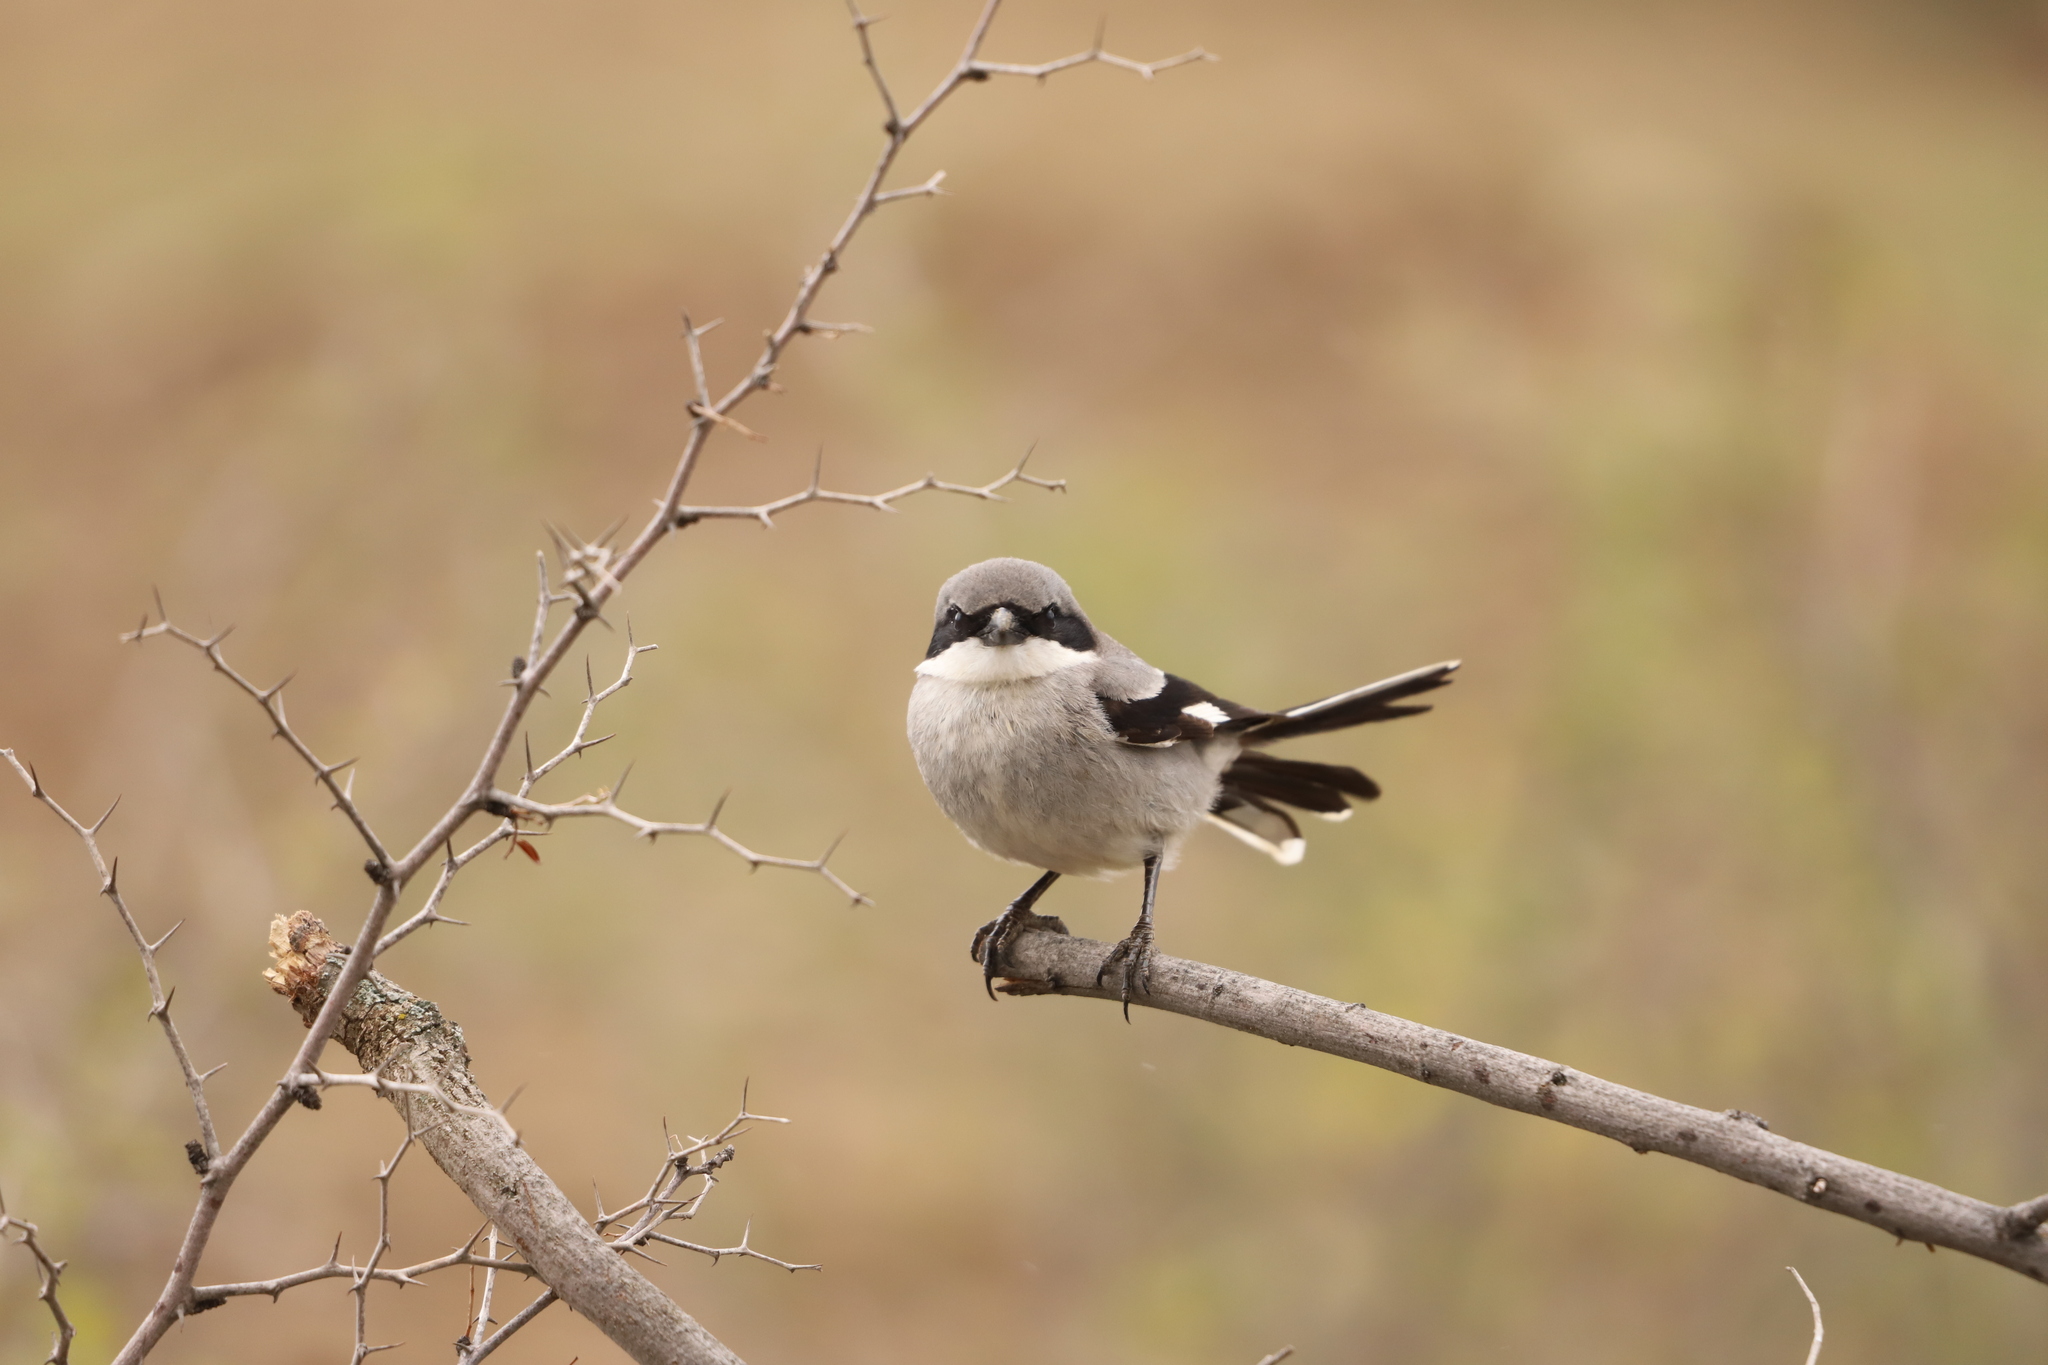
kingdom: Animalia
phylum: Chordata
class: Aves
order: Passeriformes
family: Laniidae
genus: Lanius
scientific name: Lanius excubitor
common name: Great grey shrike
